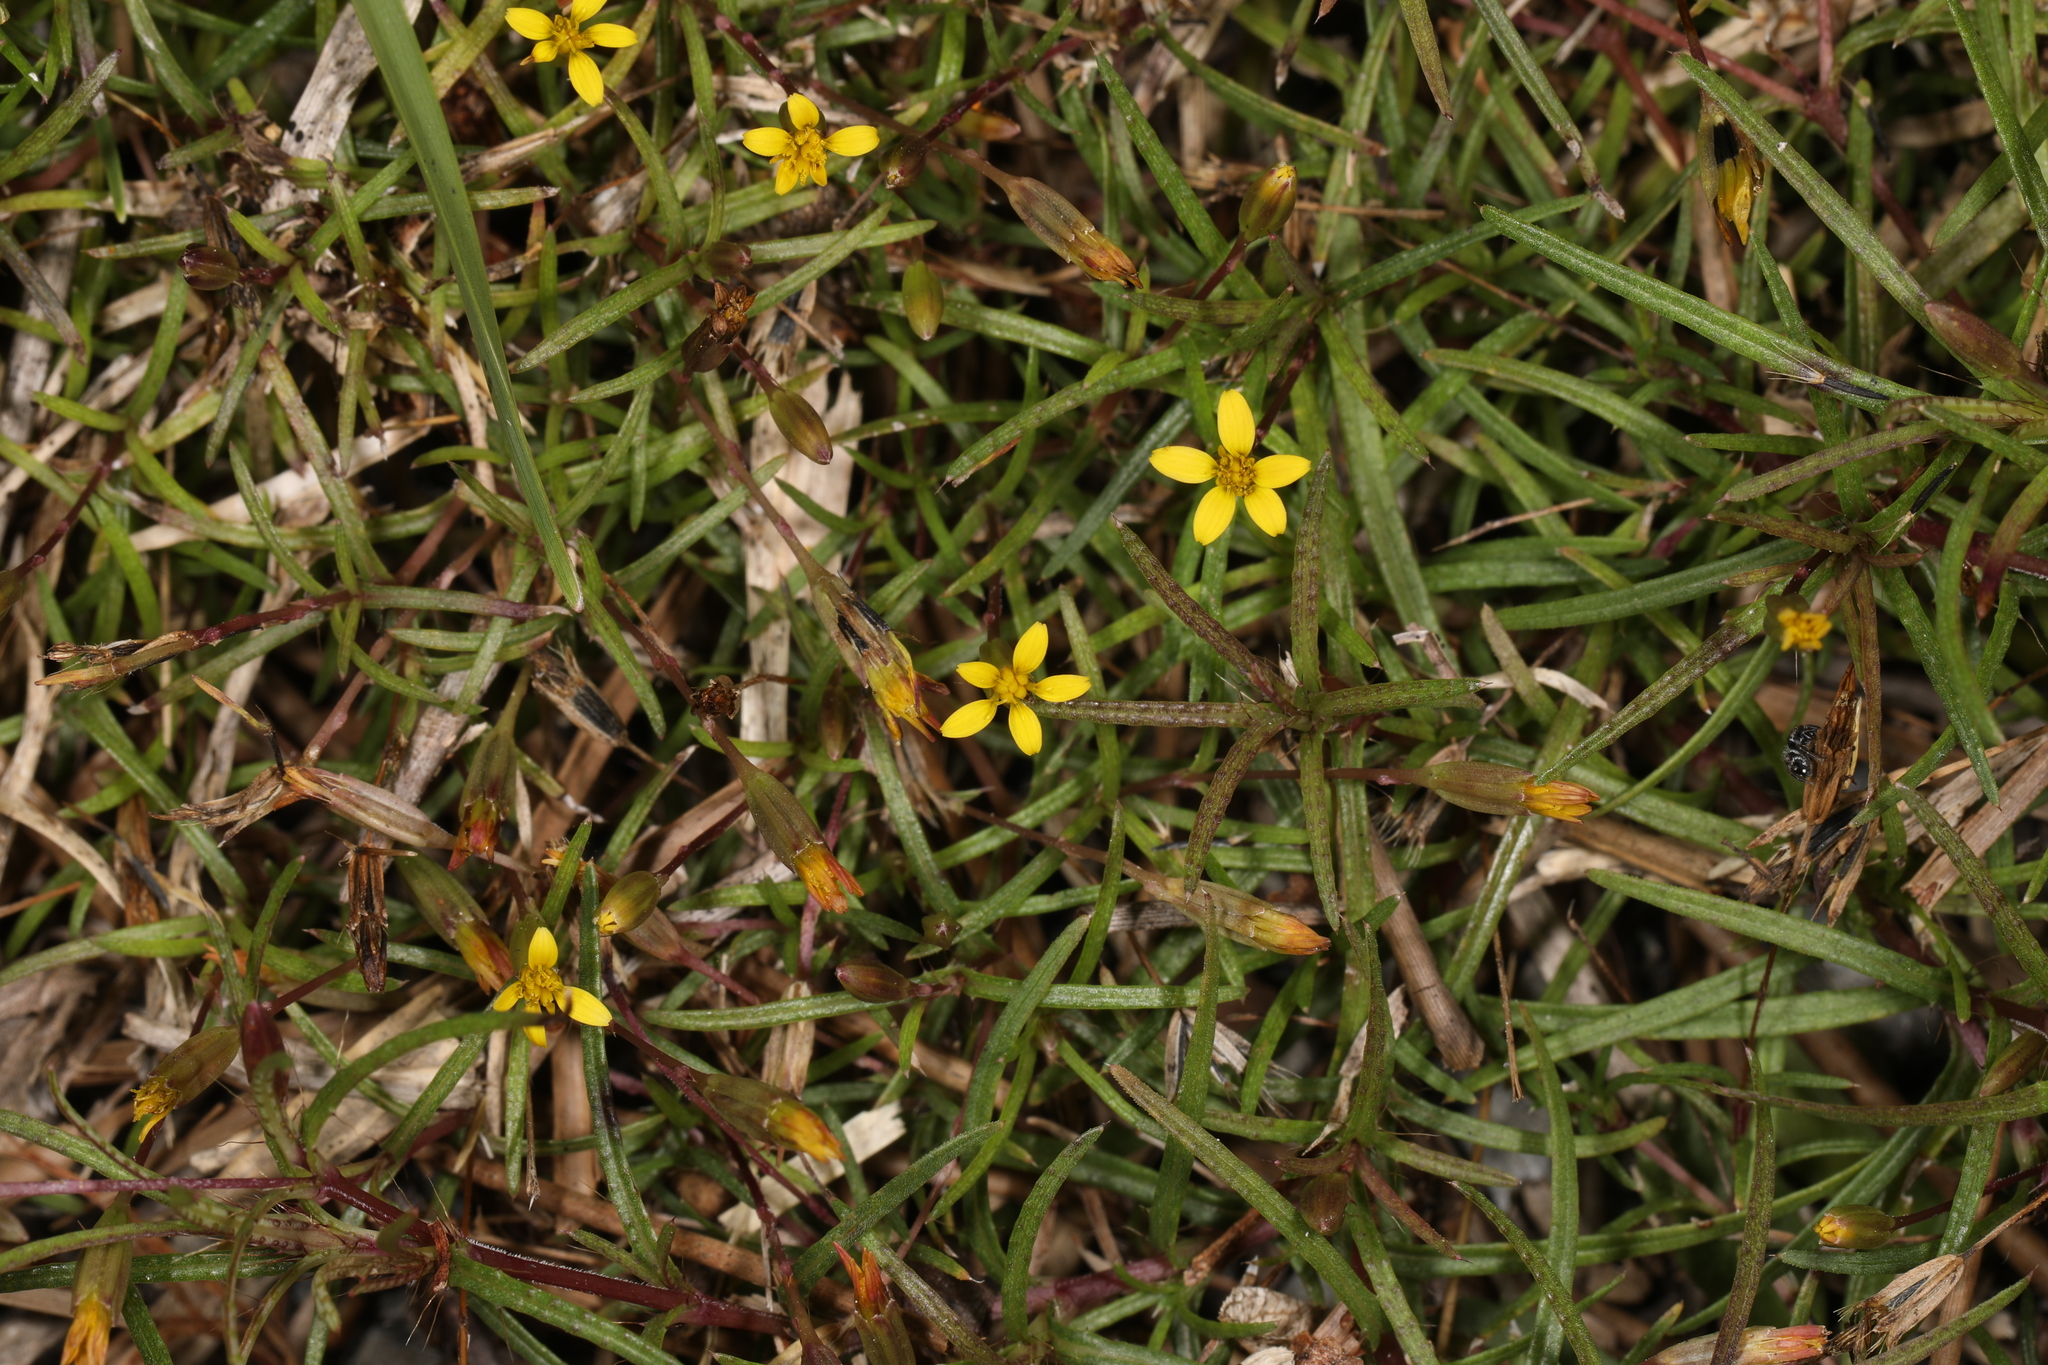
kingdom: Plantae
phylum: Tracheophyta
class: Magnoliopsida
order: Asterales
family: Asteraceae
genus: Pectis
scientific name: Pectis glaucescens
